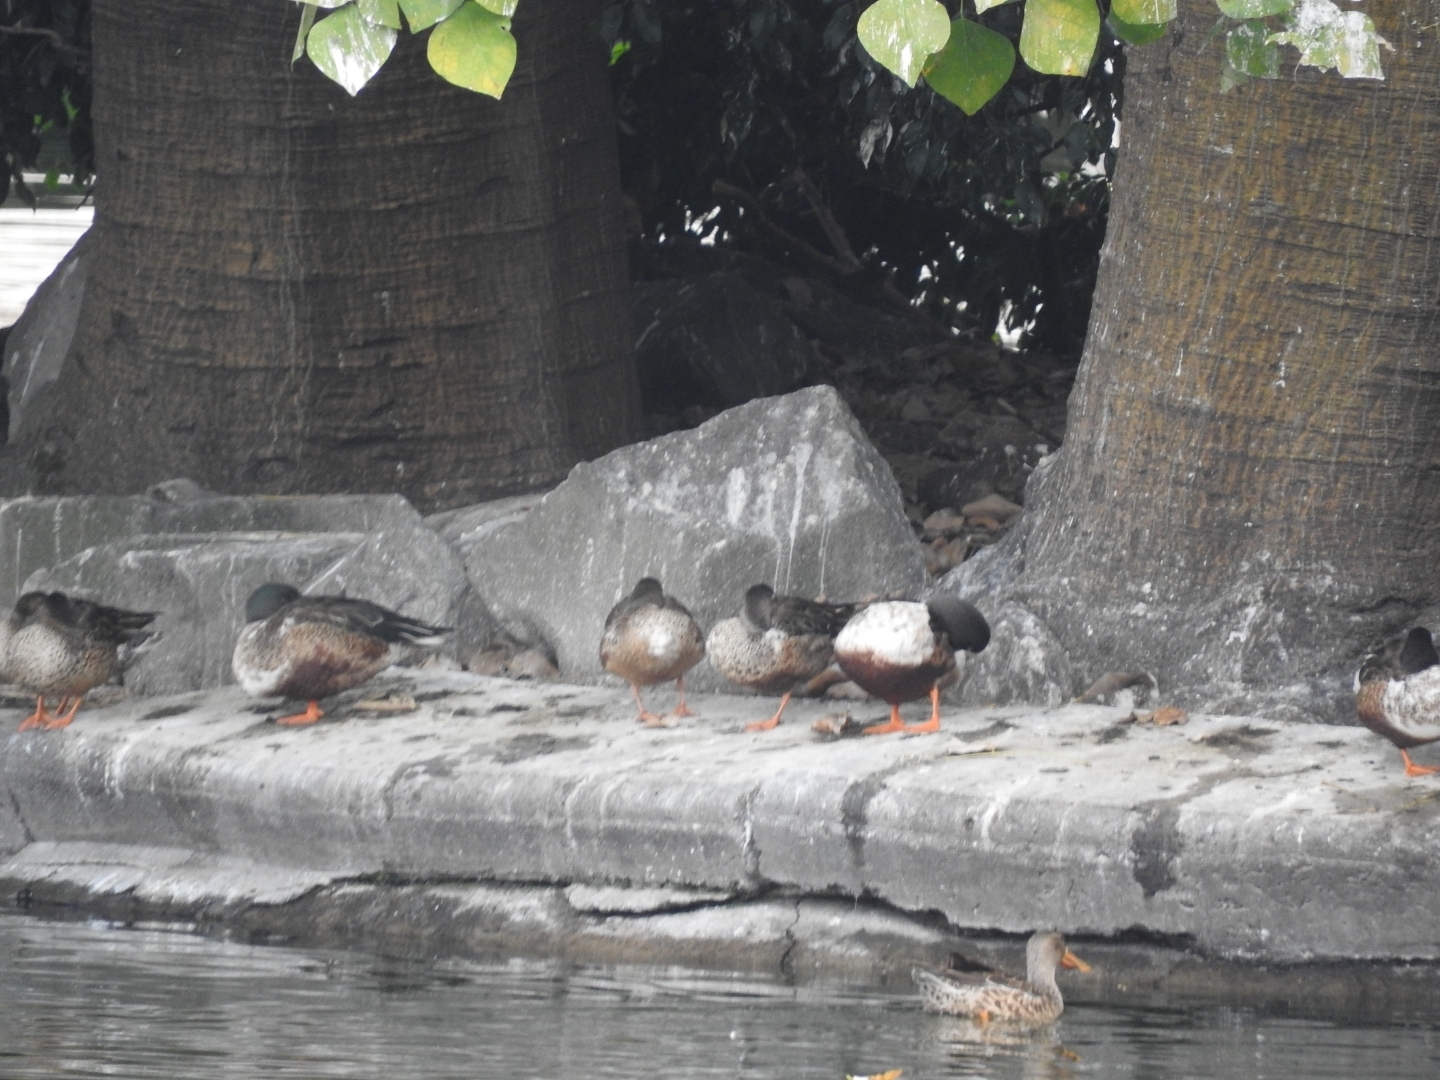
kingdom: Animalia
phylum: Chordata
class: Aves
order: Anseriformes
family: Anatidae
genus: Spatula
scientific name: Spatula clypeata
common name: Northern shoveler
